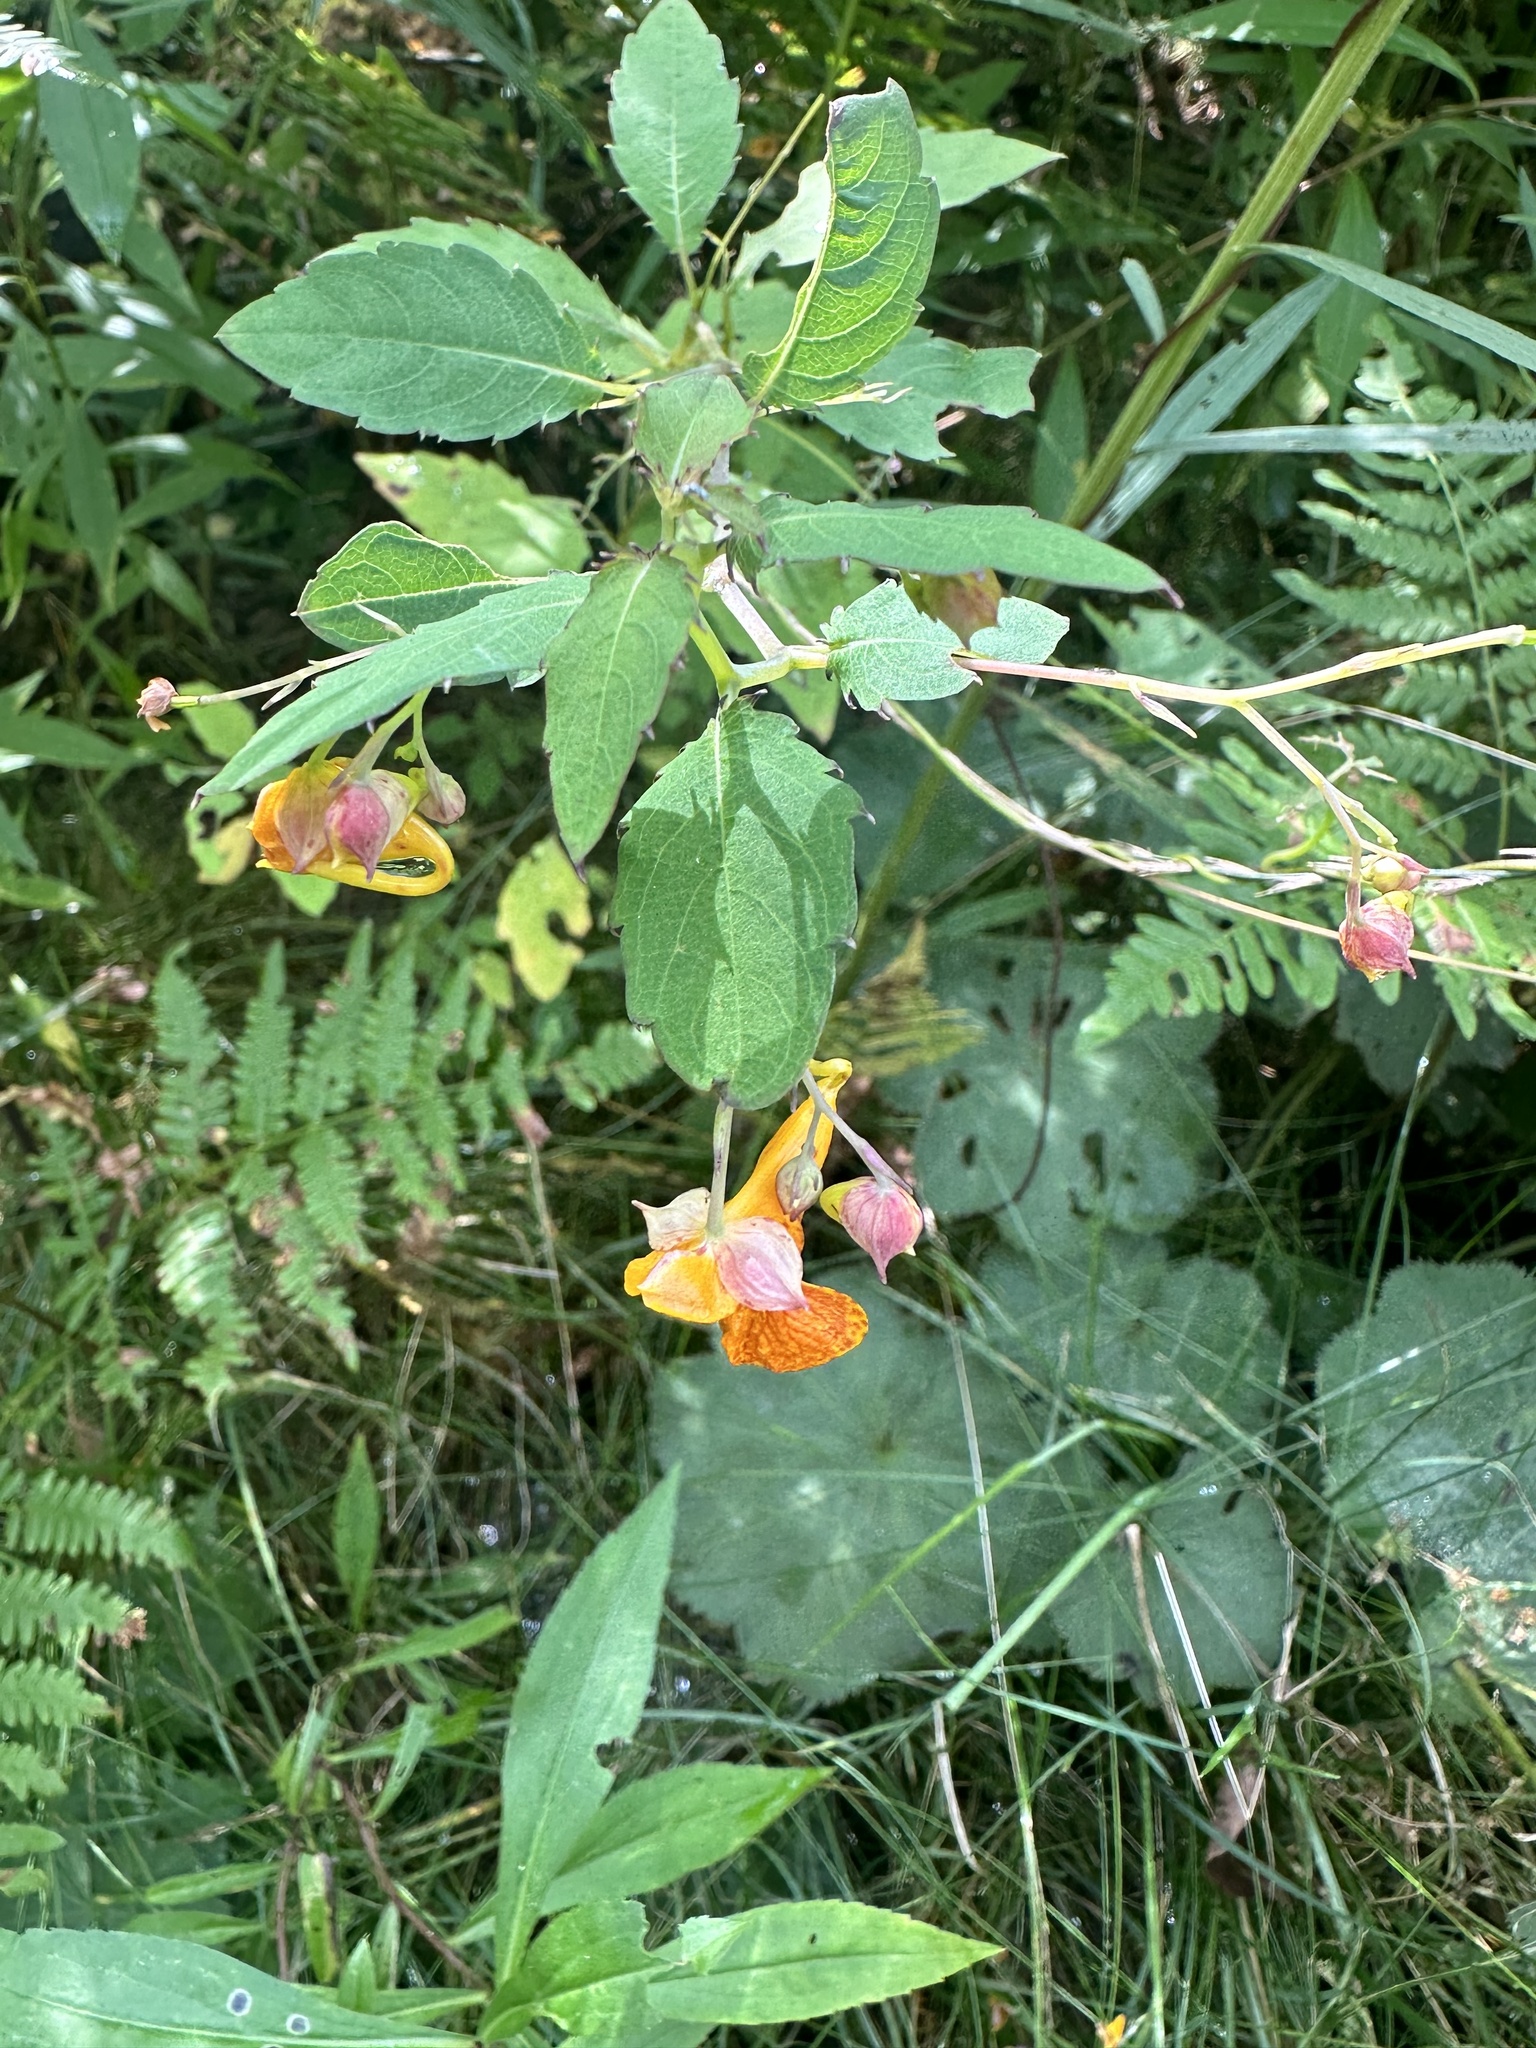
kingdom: Plantae
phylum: Tracheophyta
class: Magnoliopsida
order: Ericales
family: Balsaminaceae
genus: Impatiens
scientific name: Impatiens capensis
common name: Orange balsam
